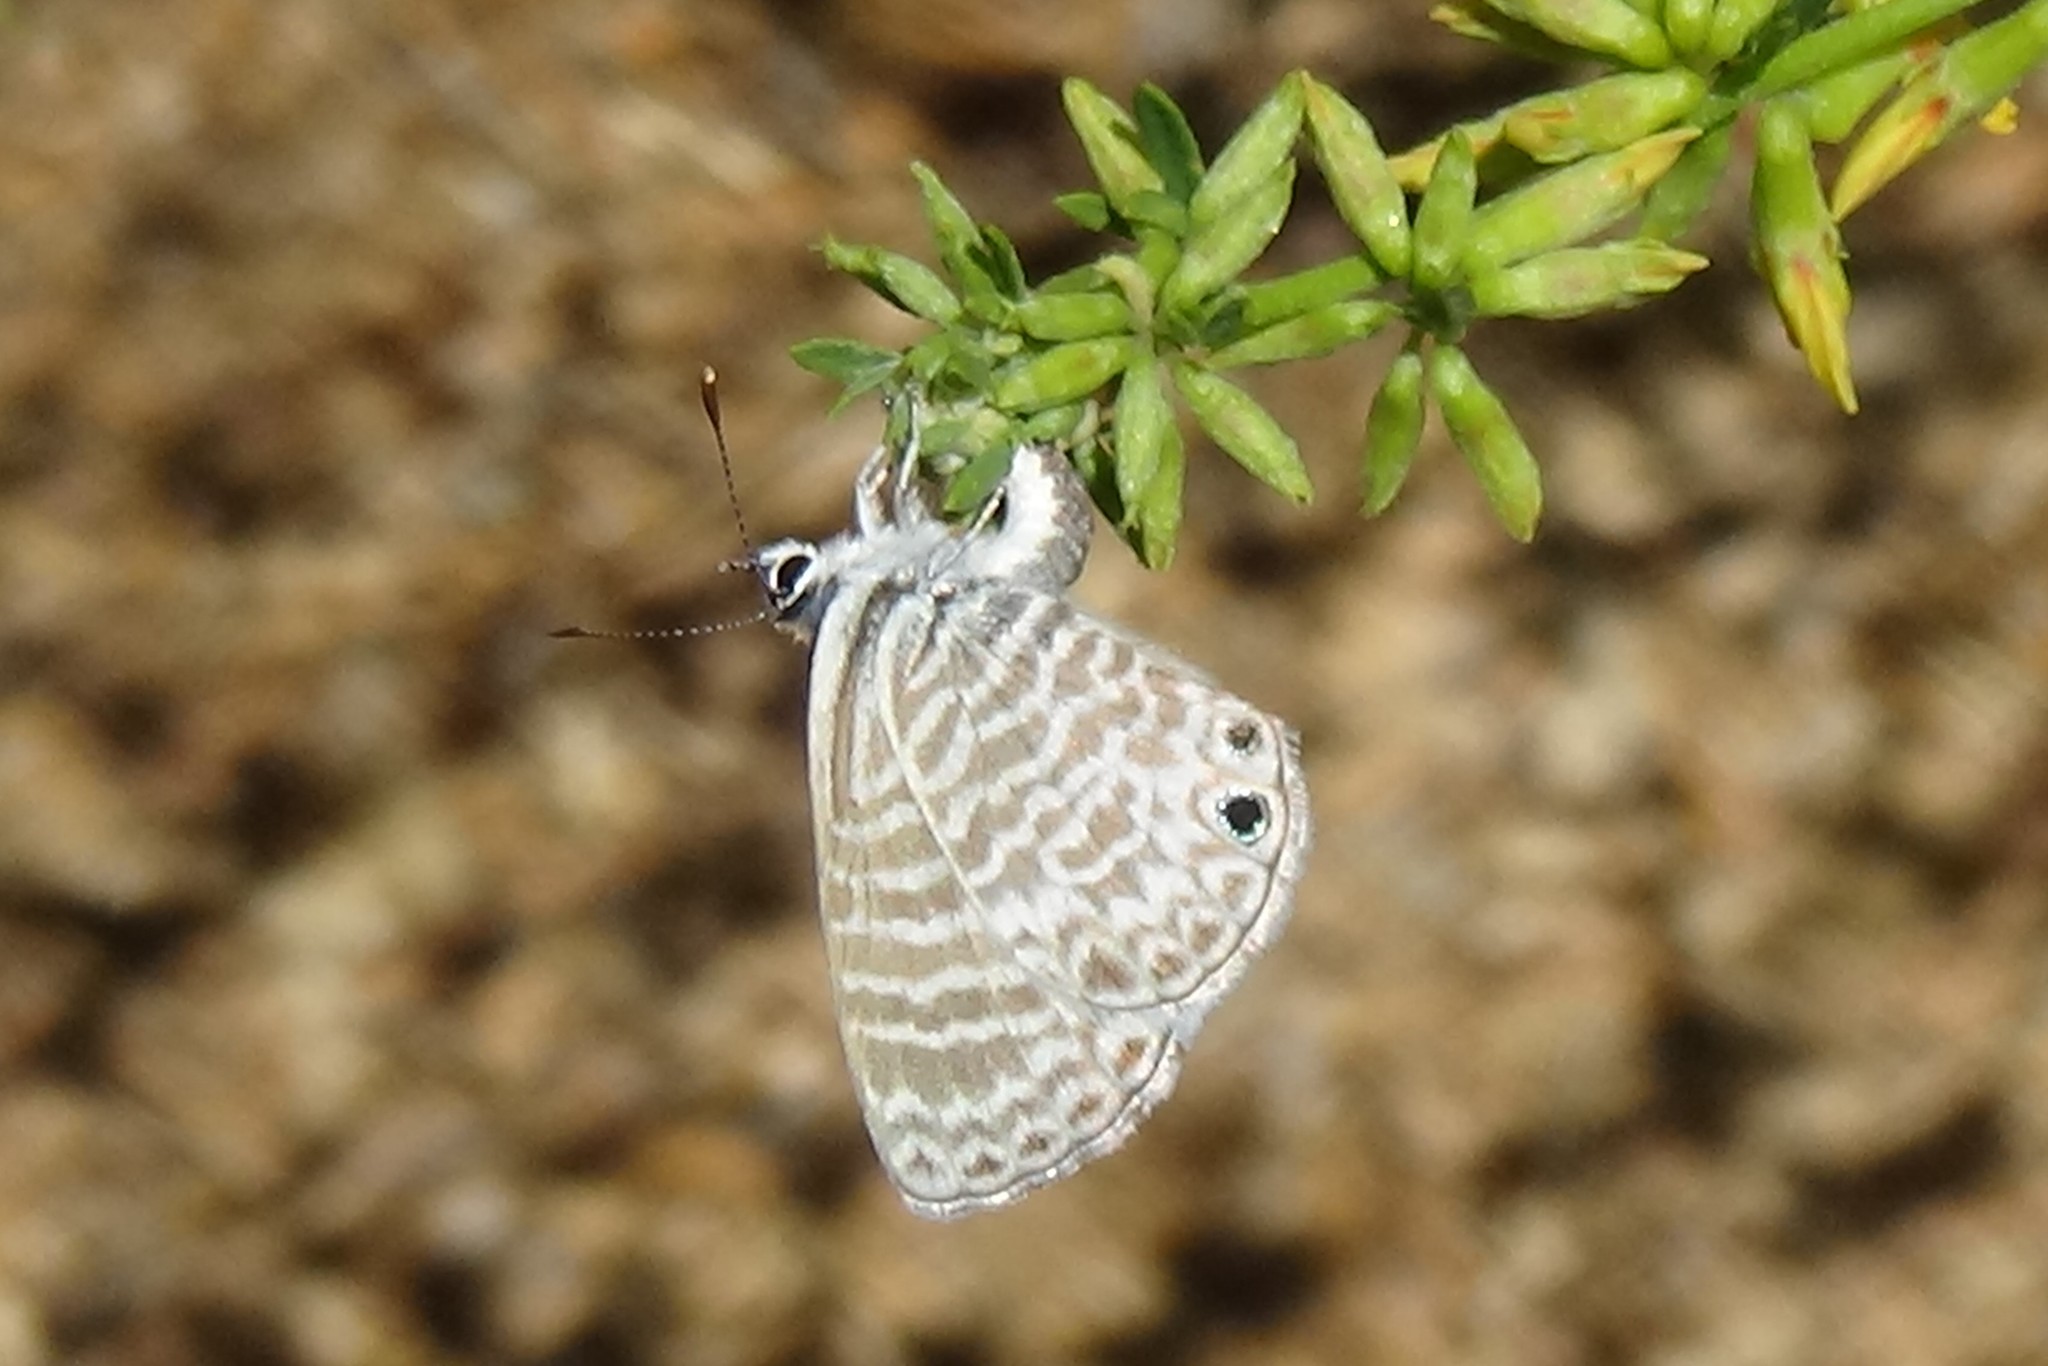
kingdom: Animalia
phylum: Arthropoda
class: Insecta
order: Lepidoptera
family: Lycaenidae
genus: Leptotes
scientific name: Leptotes marina
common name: Marine blue
